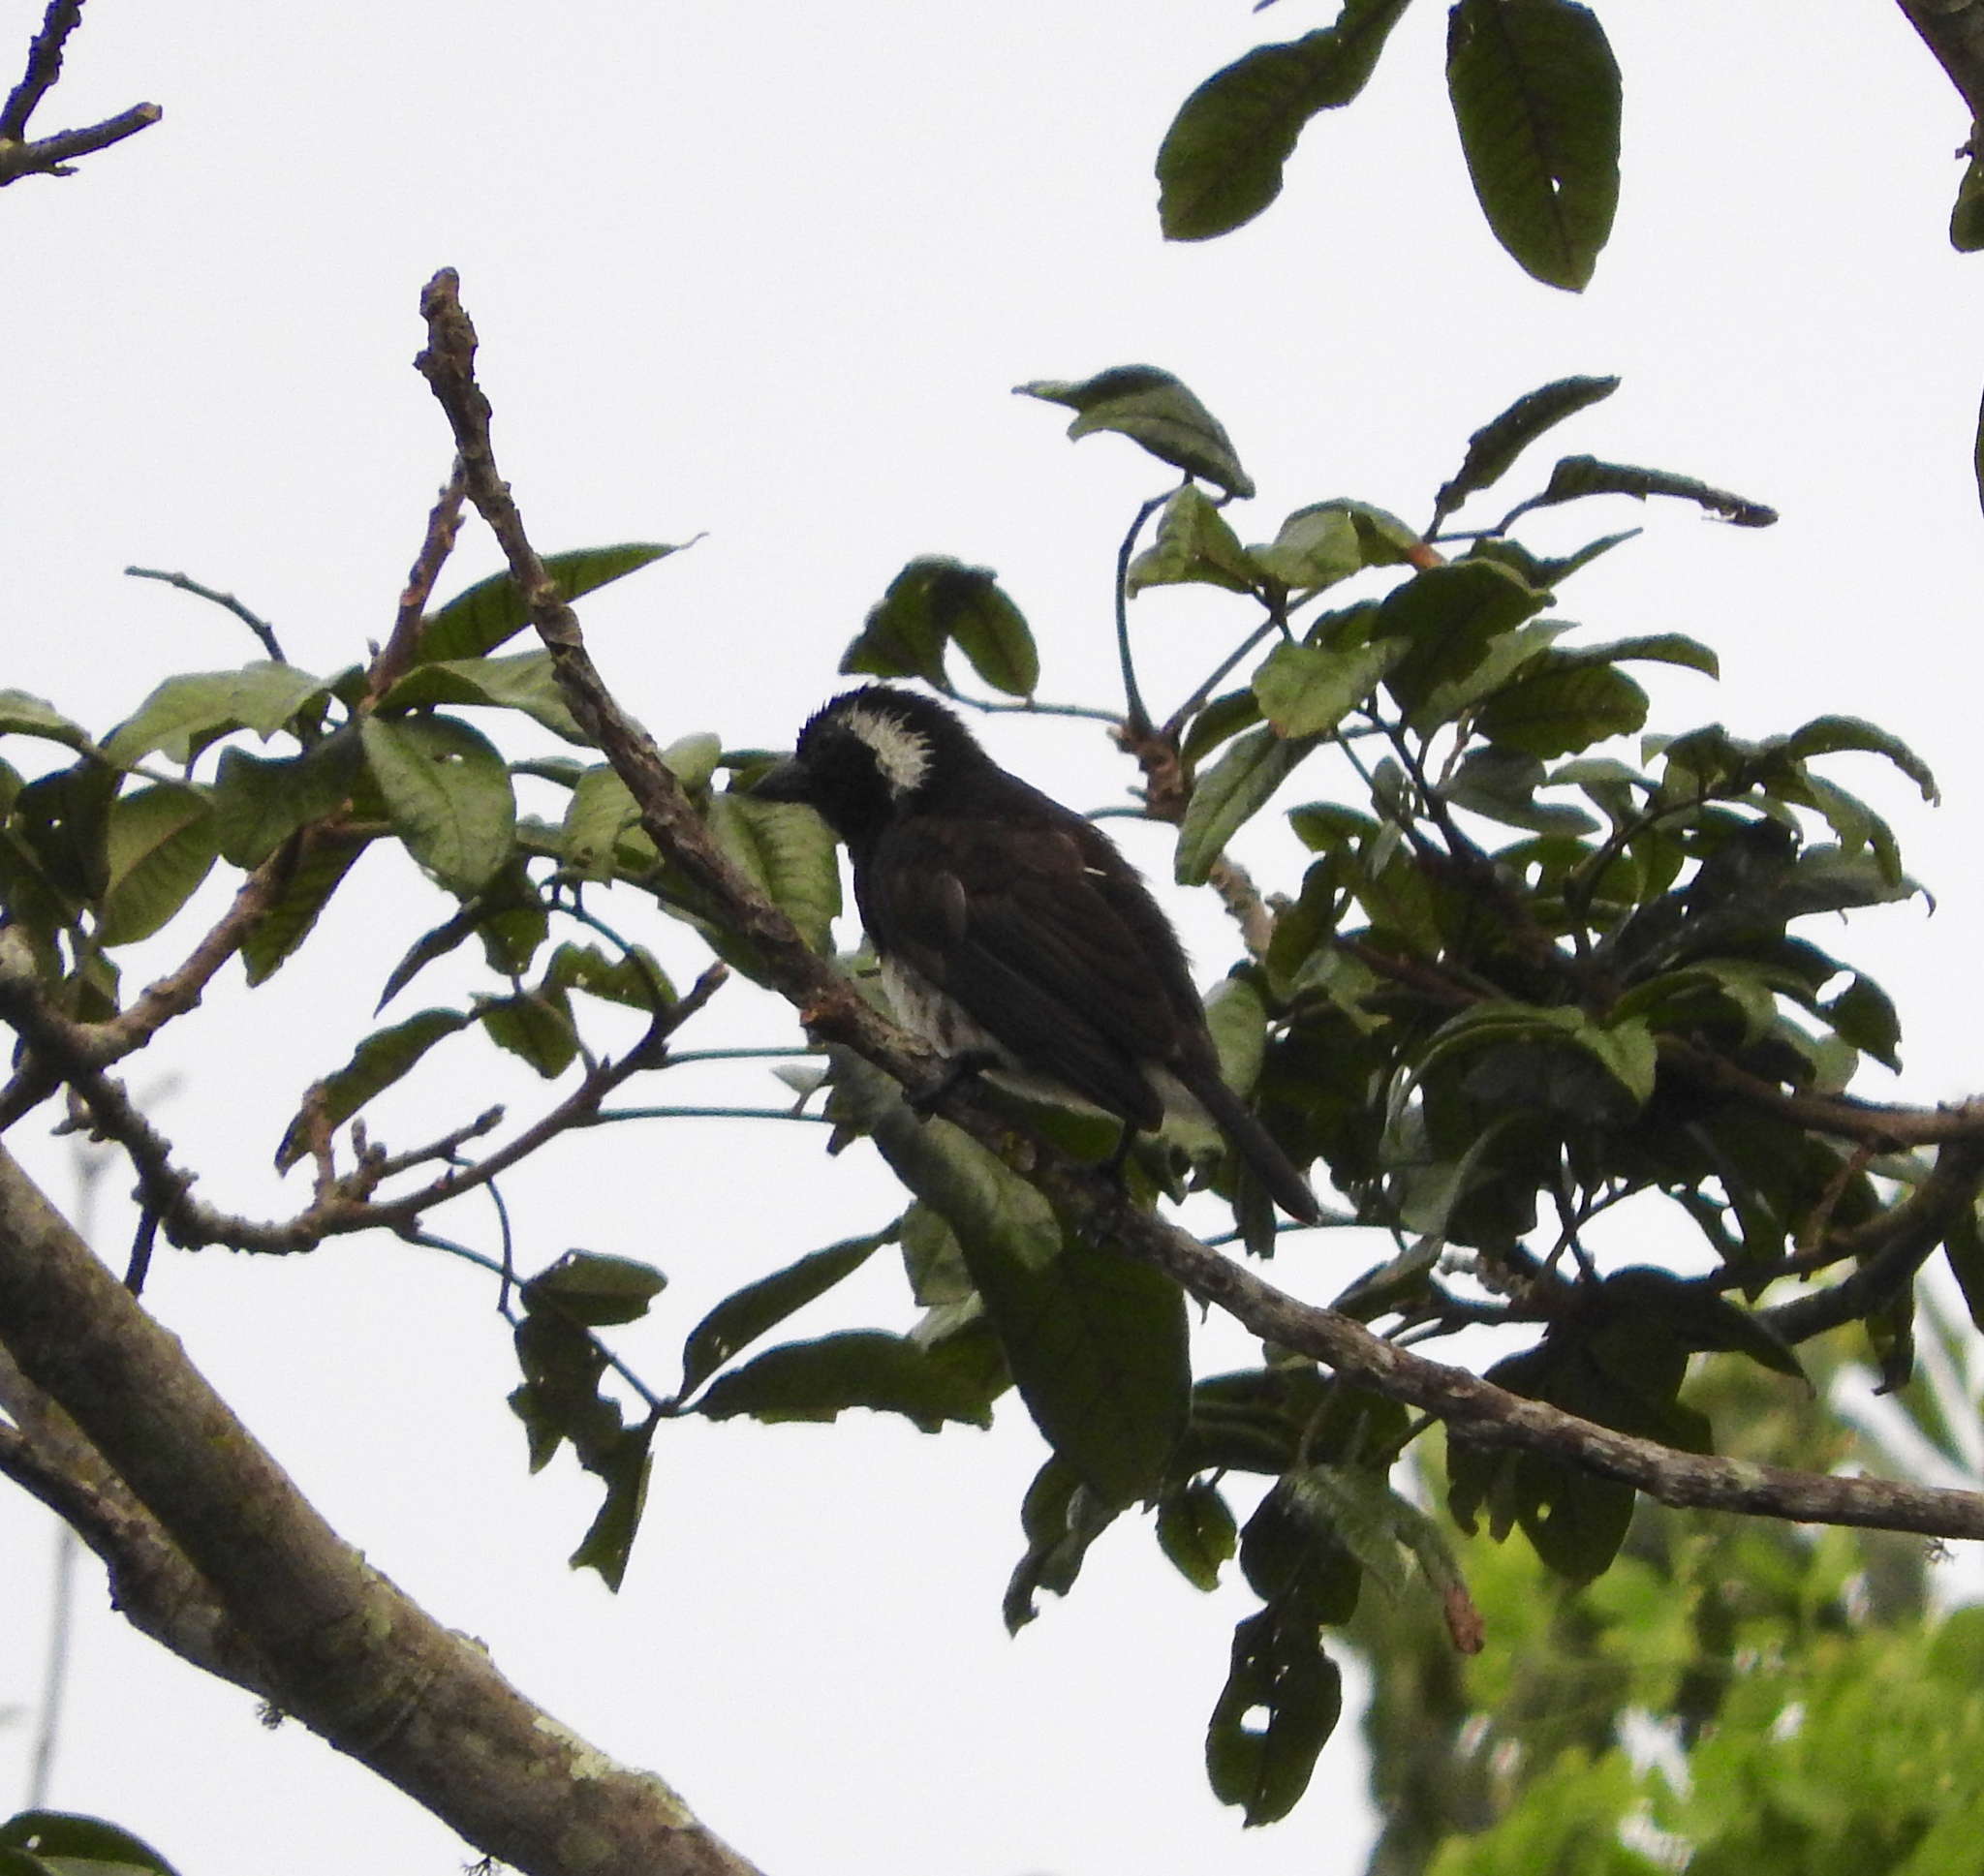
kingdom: Animalia
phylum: Chordata
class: Aves
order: Piciformes
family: Lybiidae
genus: Stactolaema
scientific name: Stactolaema leucotis
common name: White-eared barbet
